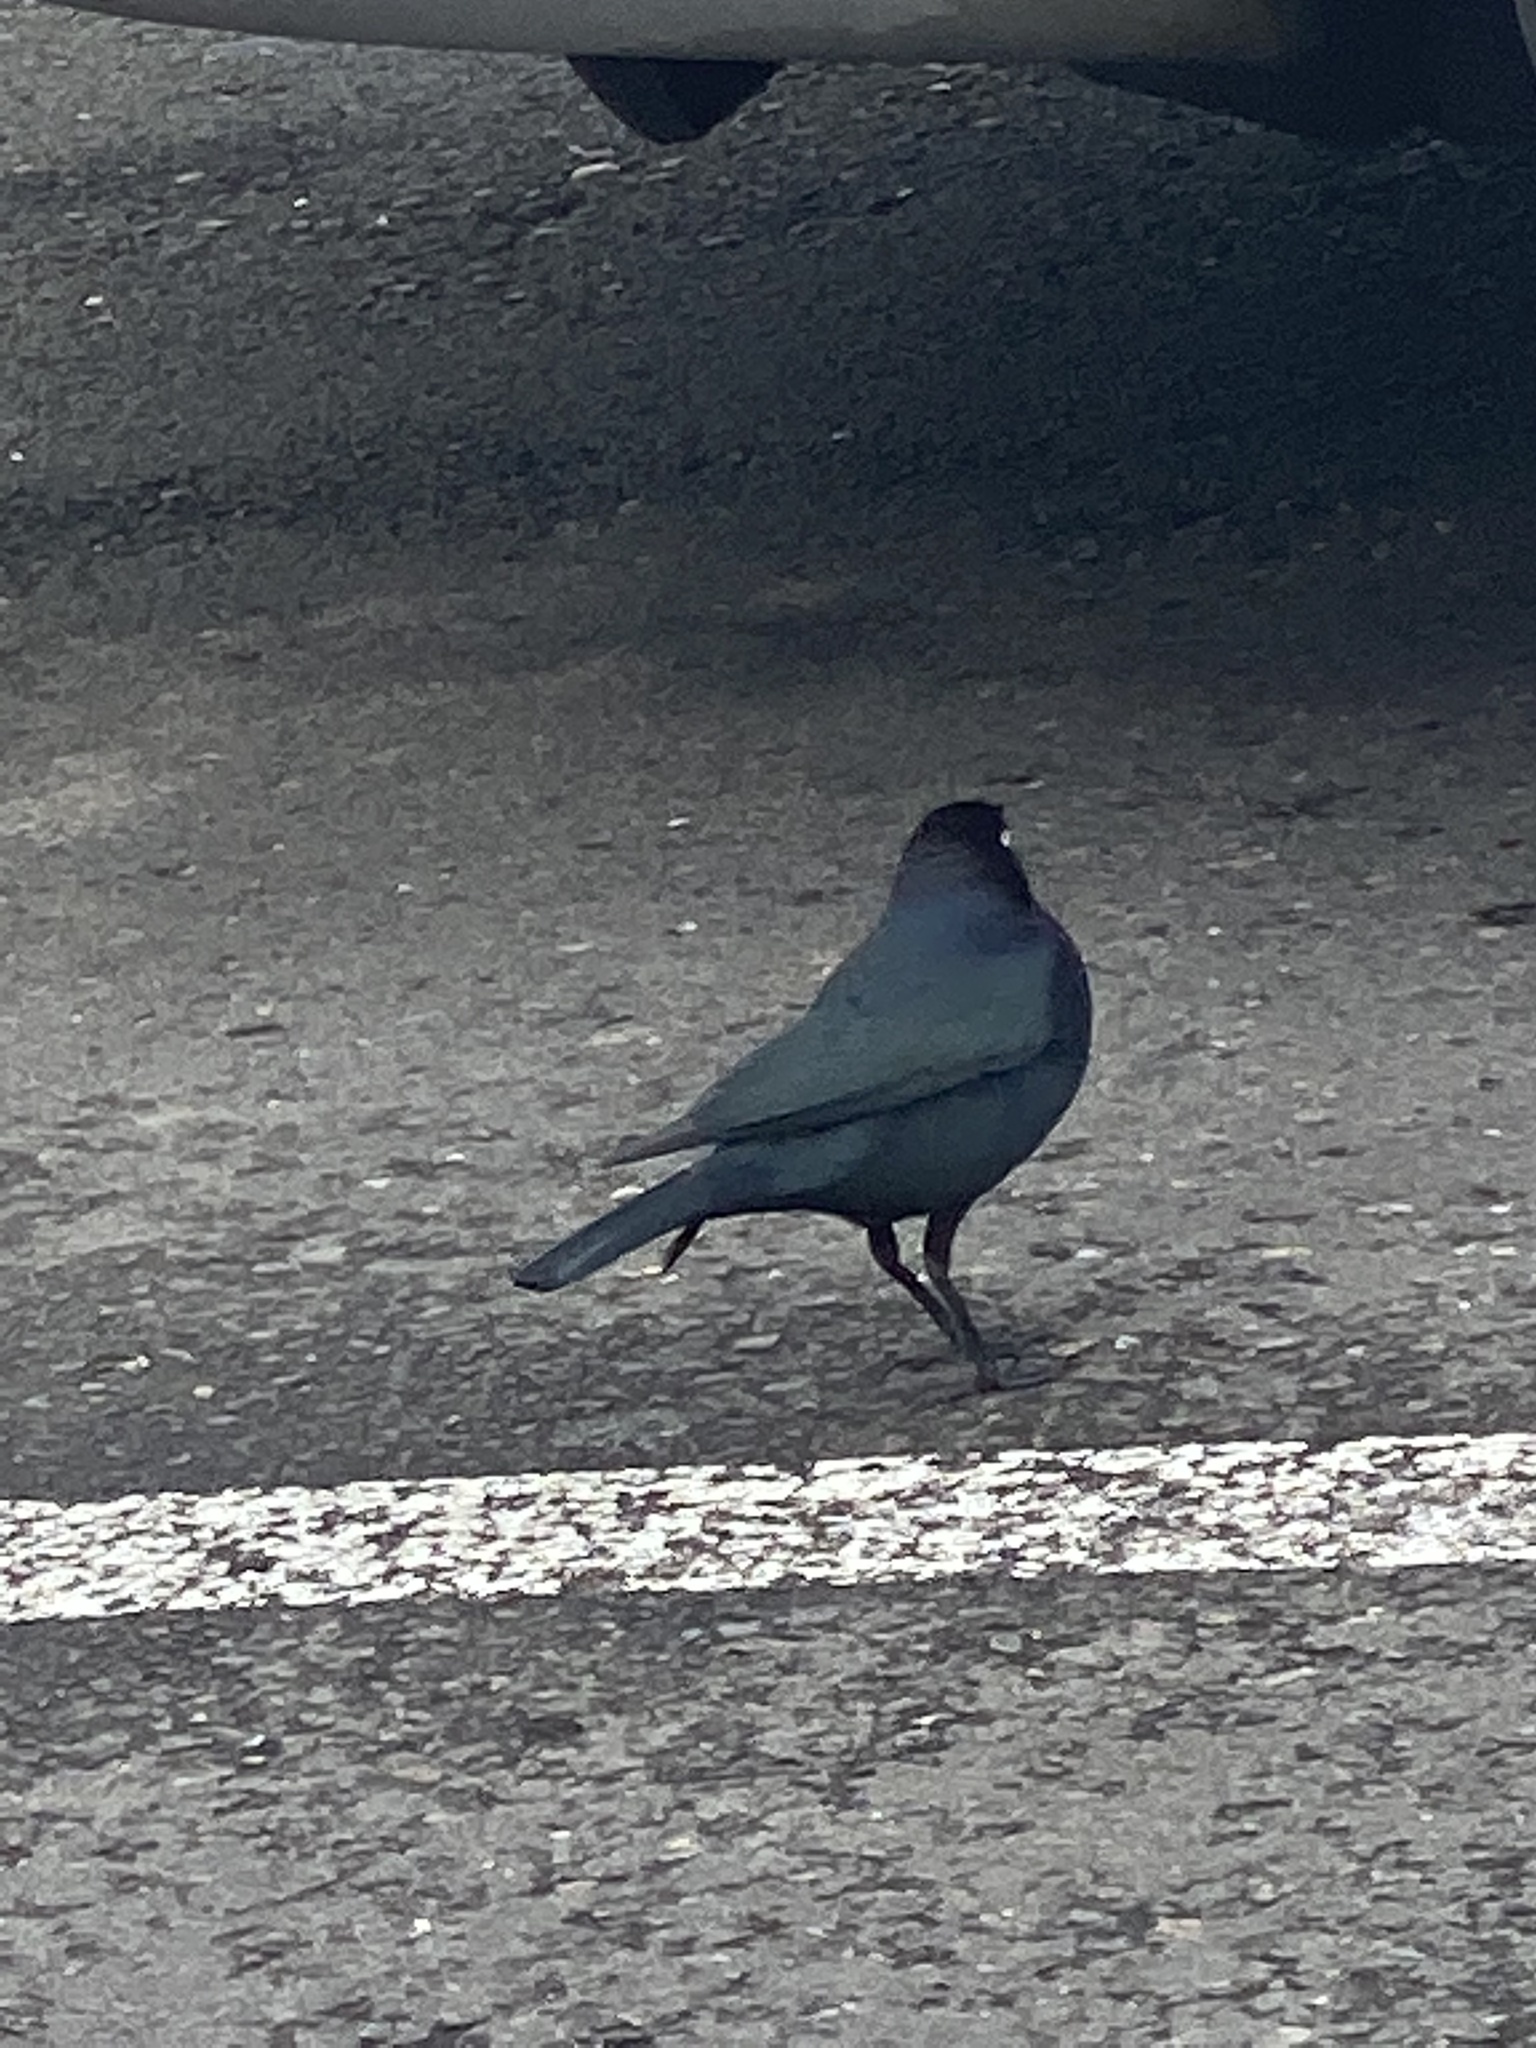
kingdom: Animalia
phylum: Chordata
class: Aves
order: Passeriformes
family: Icteridae
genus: Euphagus
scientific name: Euphagus cyanocephalus
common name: Brewer's blackbird
